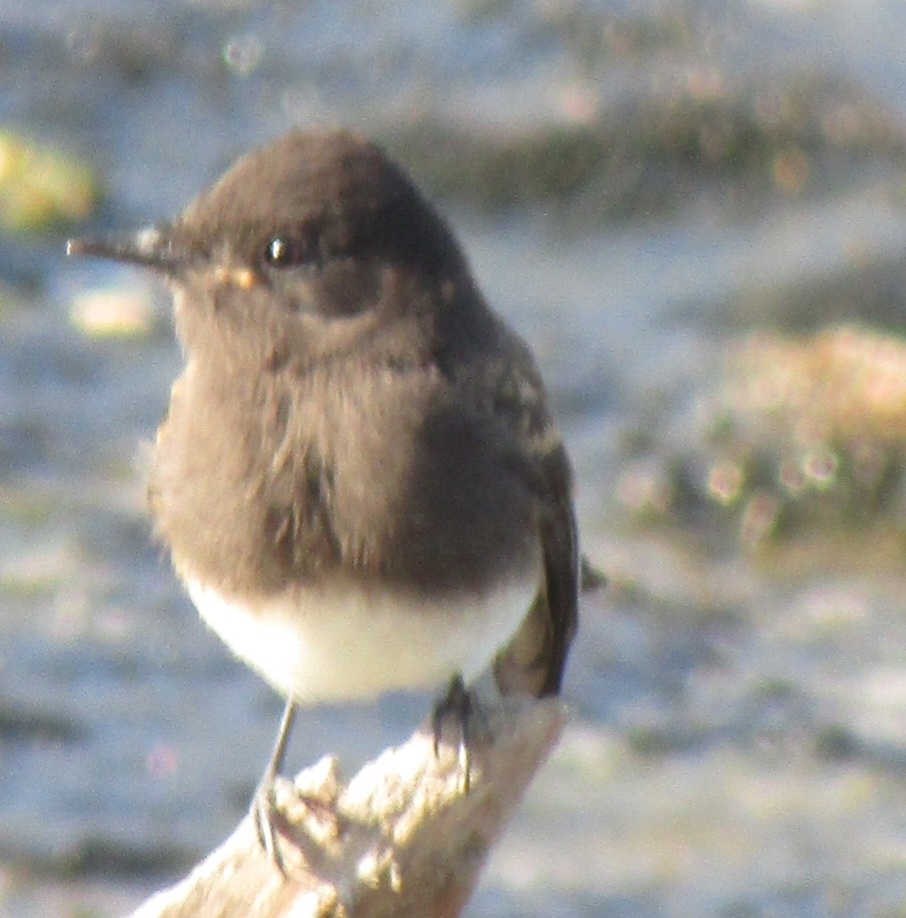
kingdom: Animalia
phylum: Chordata
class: Aves
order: Passeriformes
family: Tyrannidae
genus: Sayornis
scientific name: Sayornis nigricans
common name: Black phoebe
